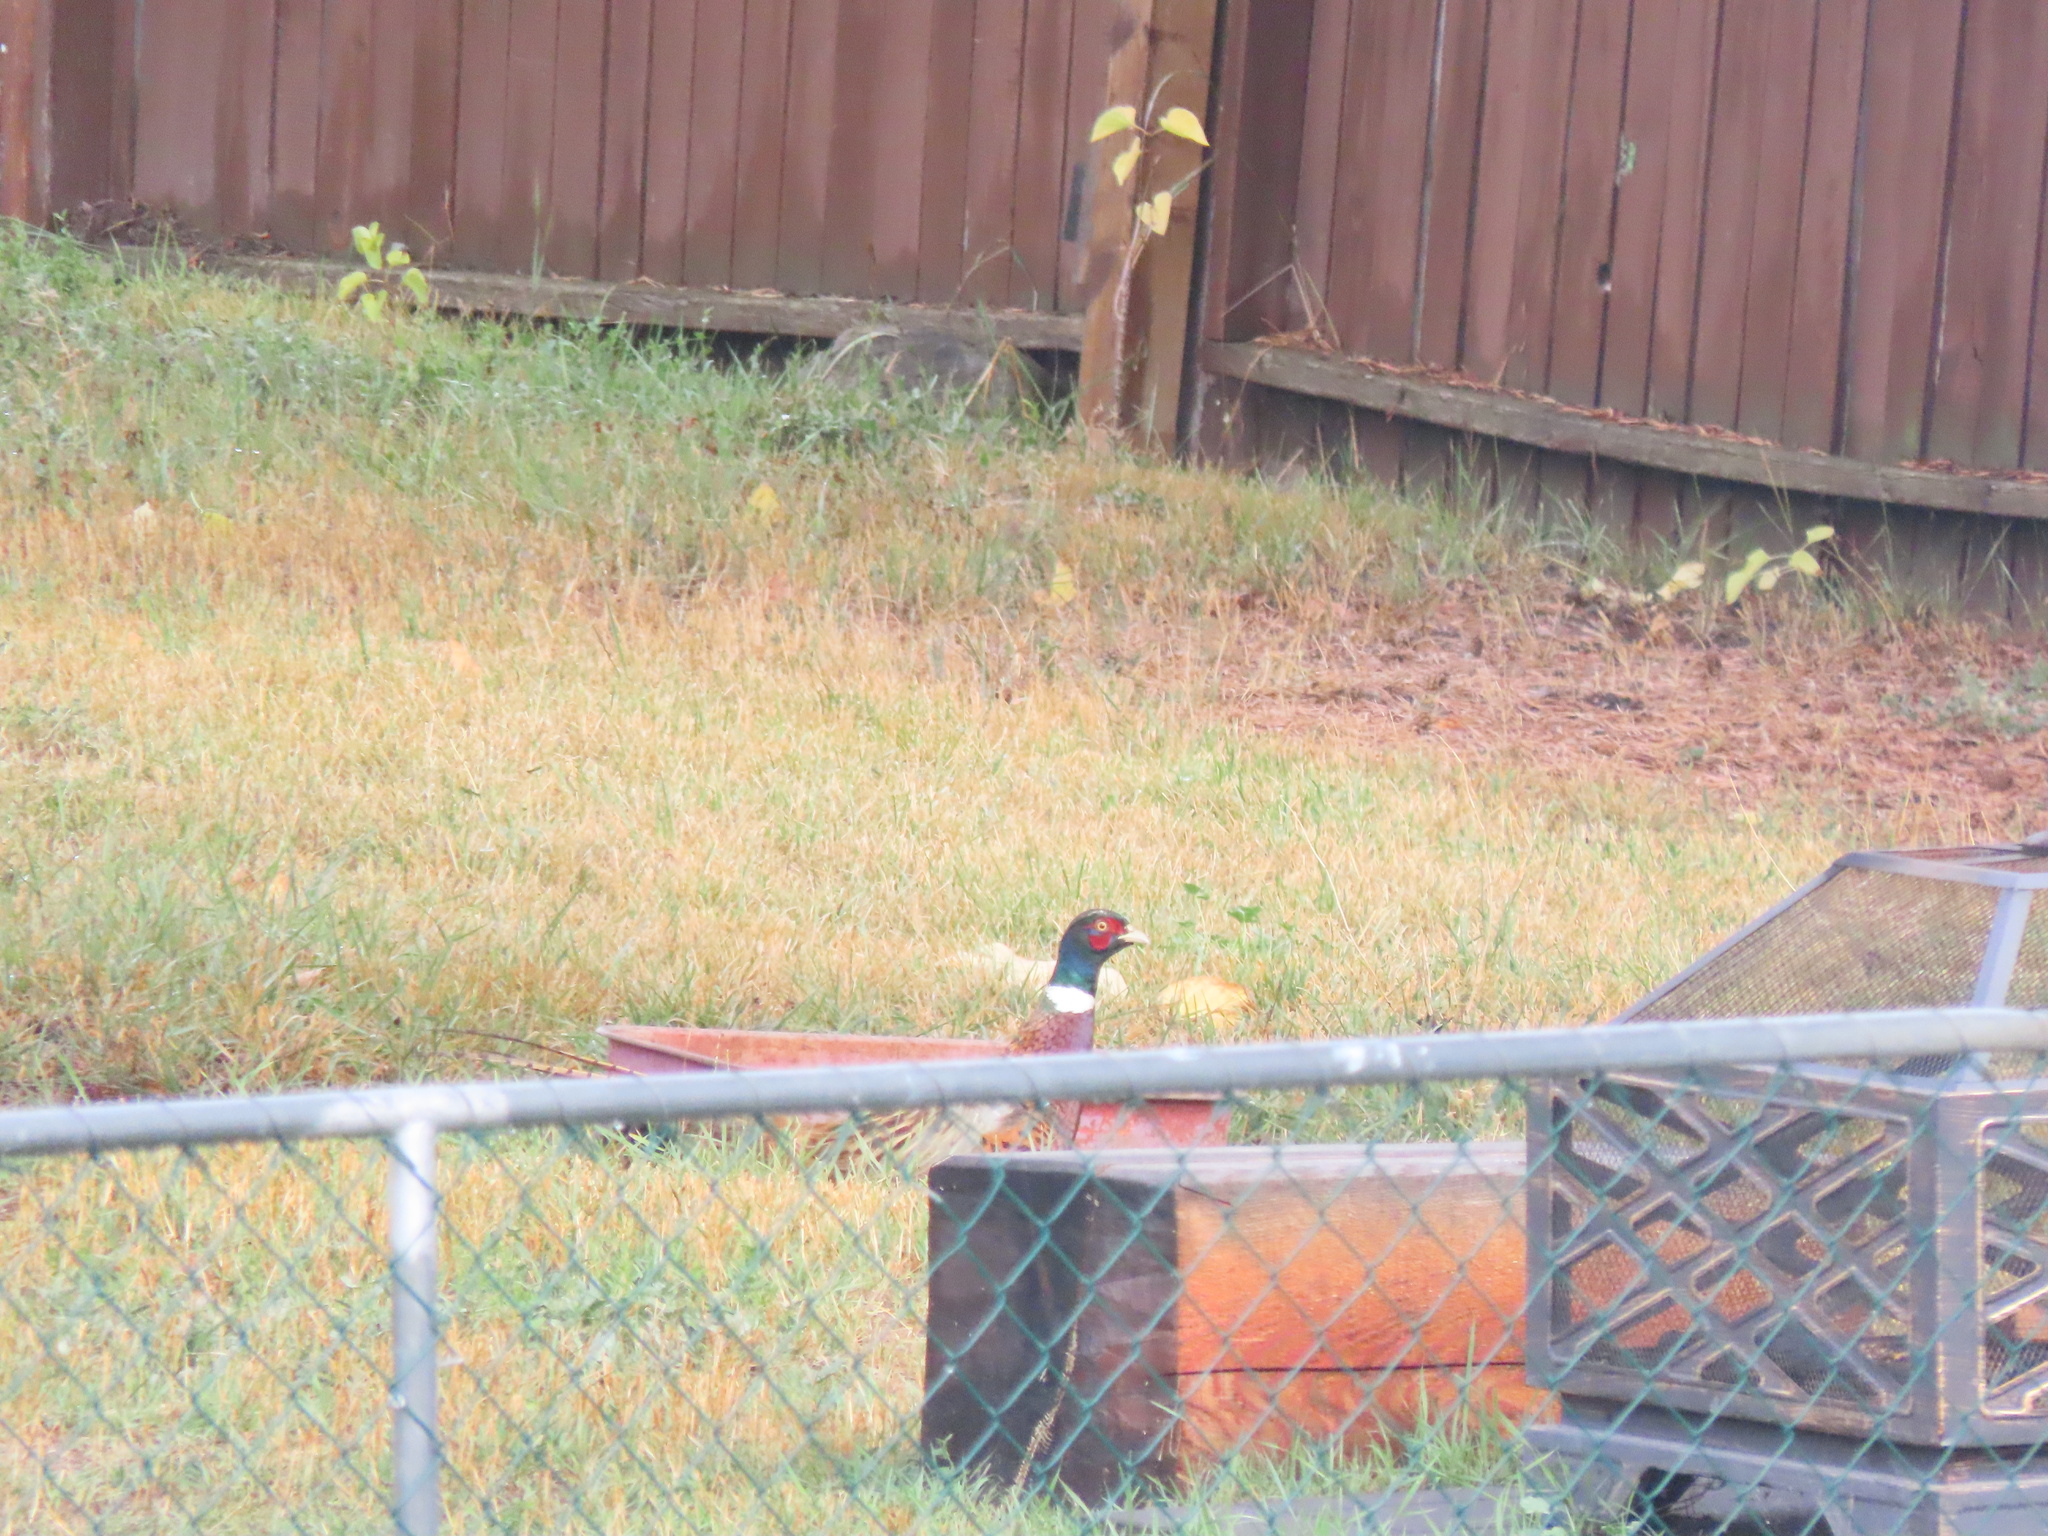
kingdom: Animalia
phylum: Chordata
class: Aves
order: Galliformes
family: Phasianidae
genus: Phasianus
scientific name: Phasianus colchicus
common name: Common pheasant
